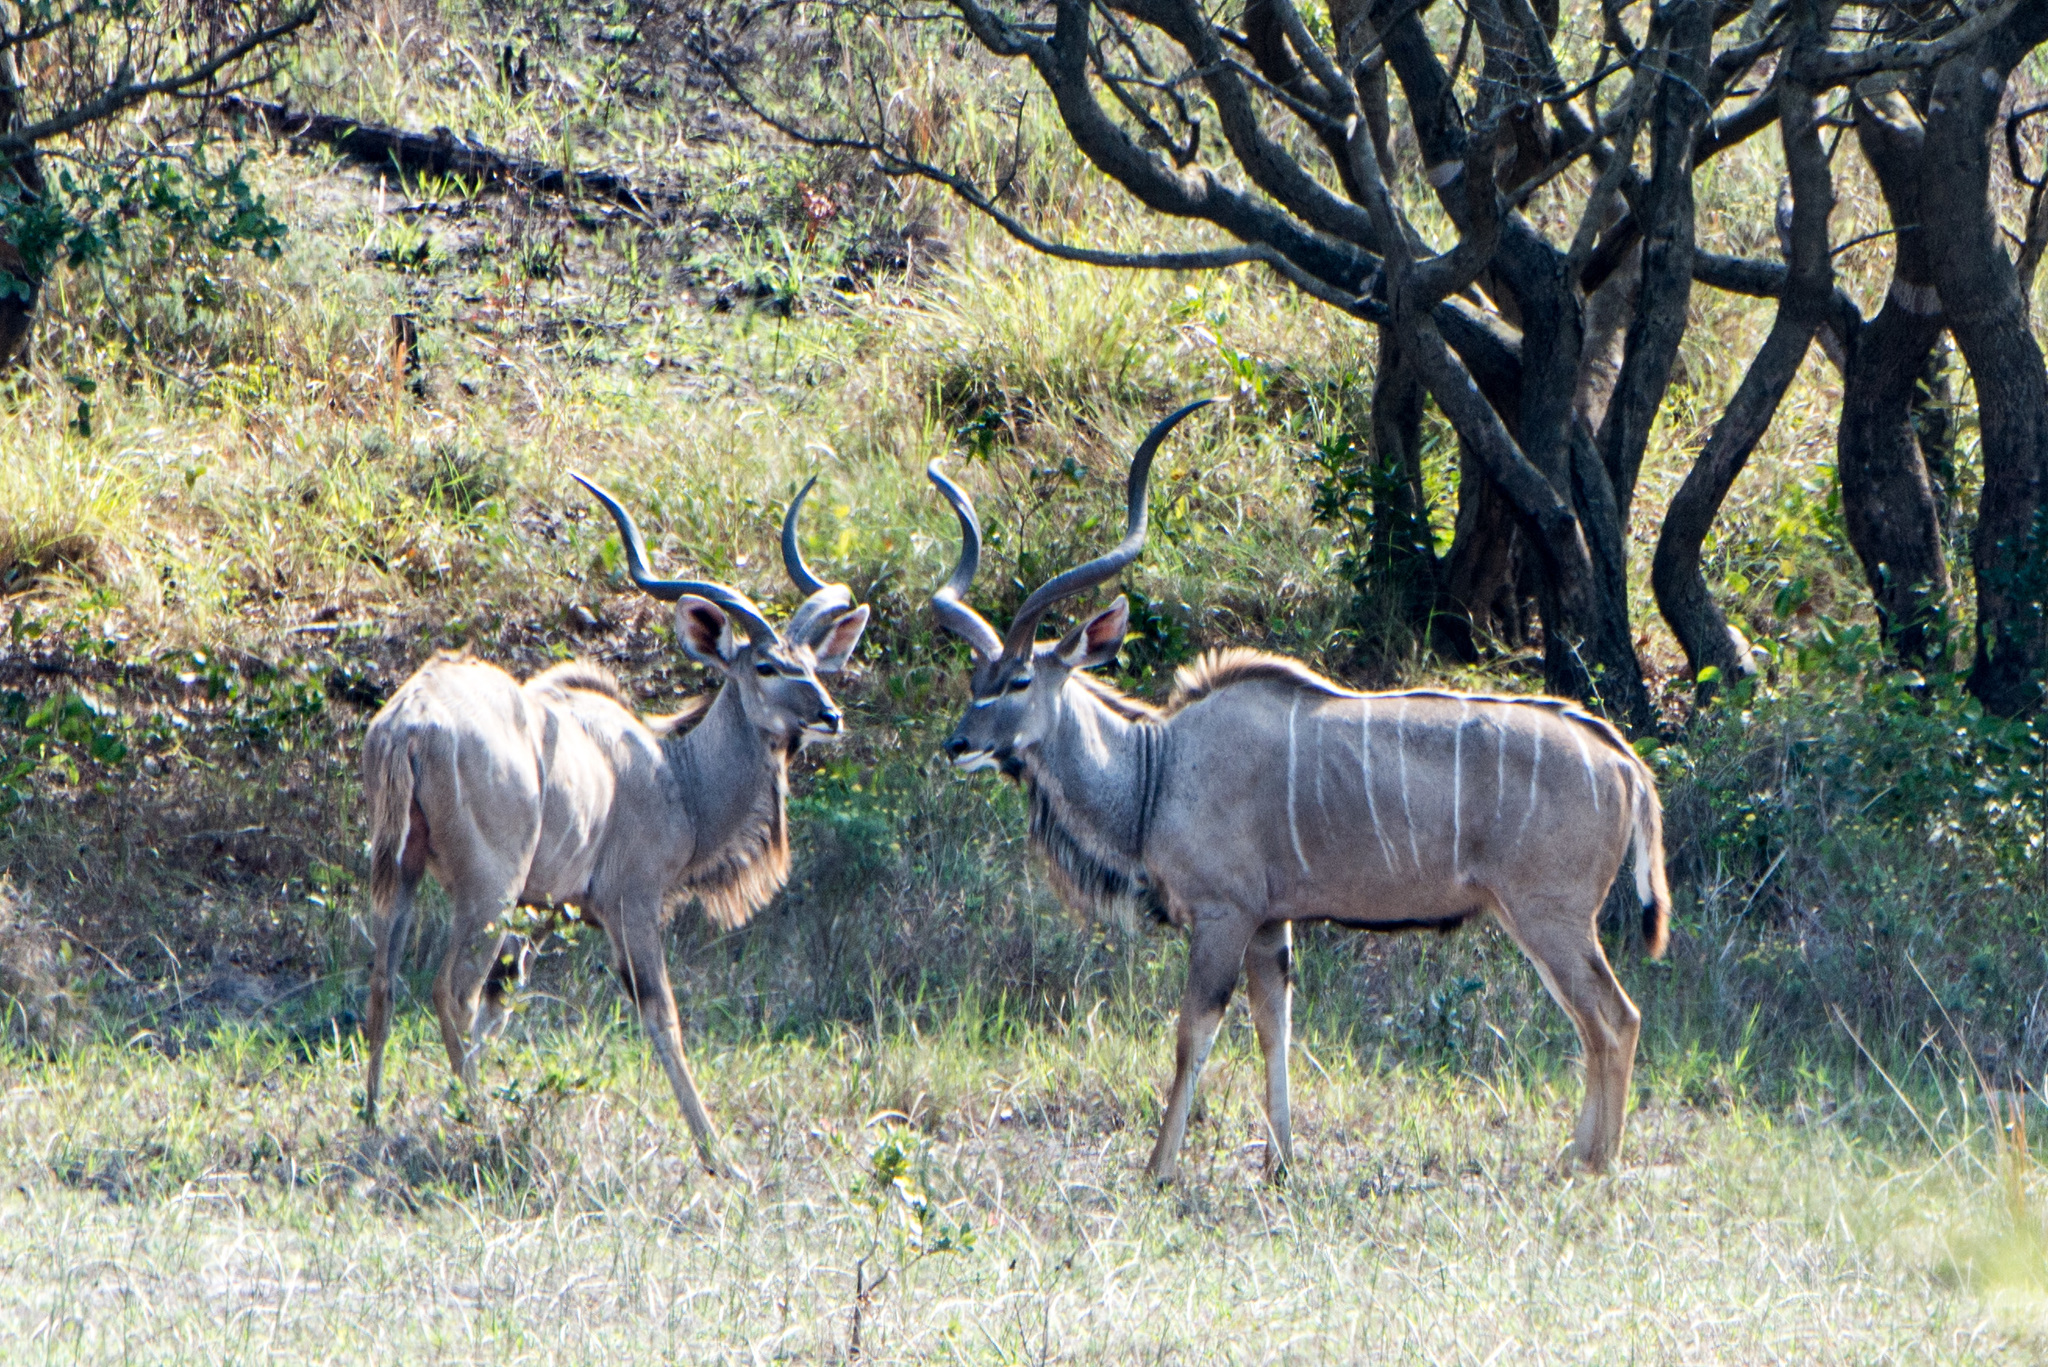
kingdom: Animalia
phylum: Chordata
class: Mammalia
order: Artiodactyla
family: Bovidae
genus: Tragelaphus
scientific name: Tragelaphus strepsiceros
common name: Greater kudu
